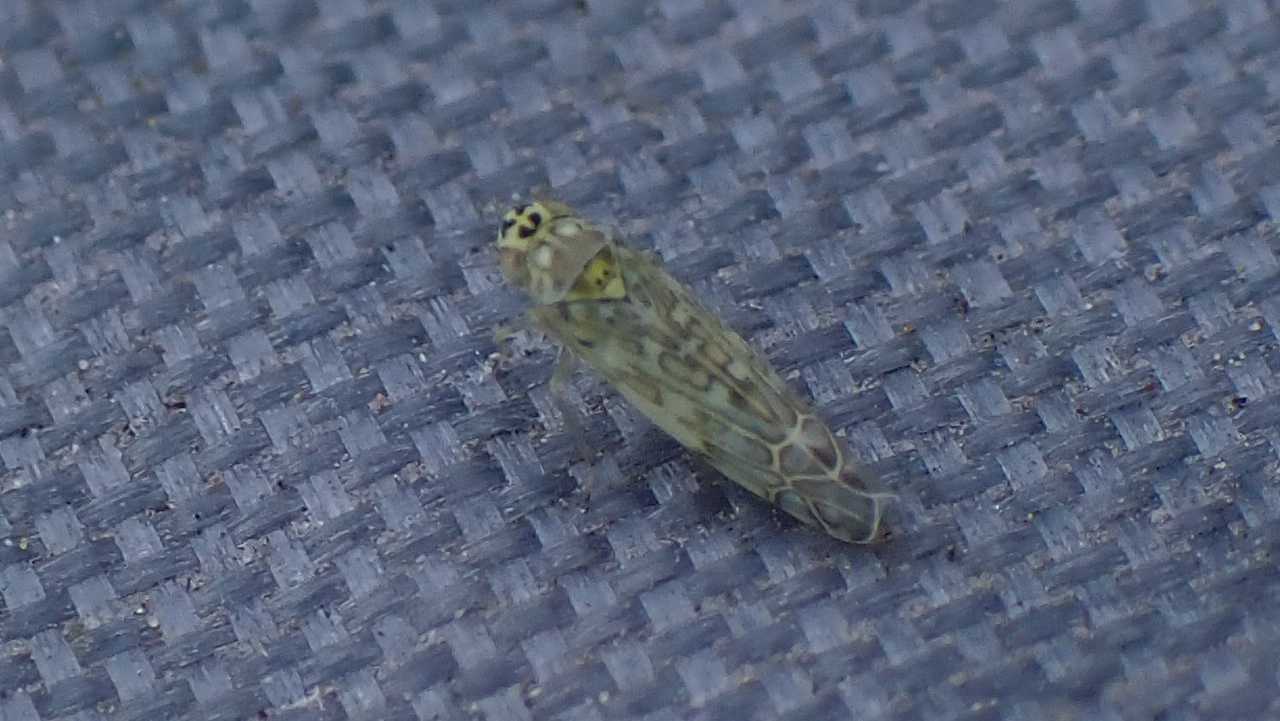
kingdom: Animalia
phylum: Arthropoda
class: Insecta
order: Hemiptera
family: Cicadellidae
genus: Eupteryx
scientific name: Eupteryx decemnotata
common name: Ligurian leafhopper
